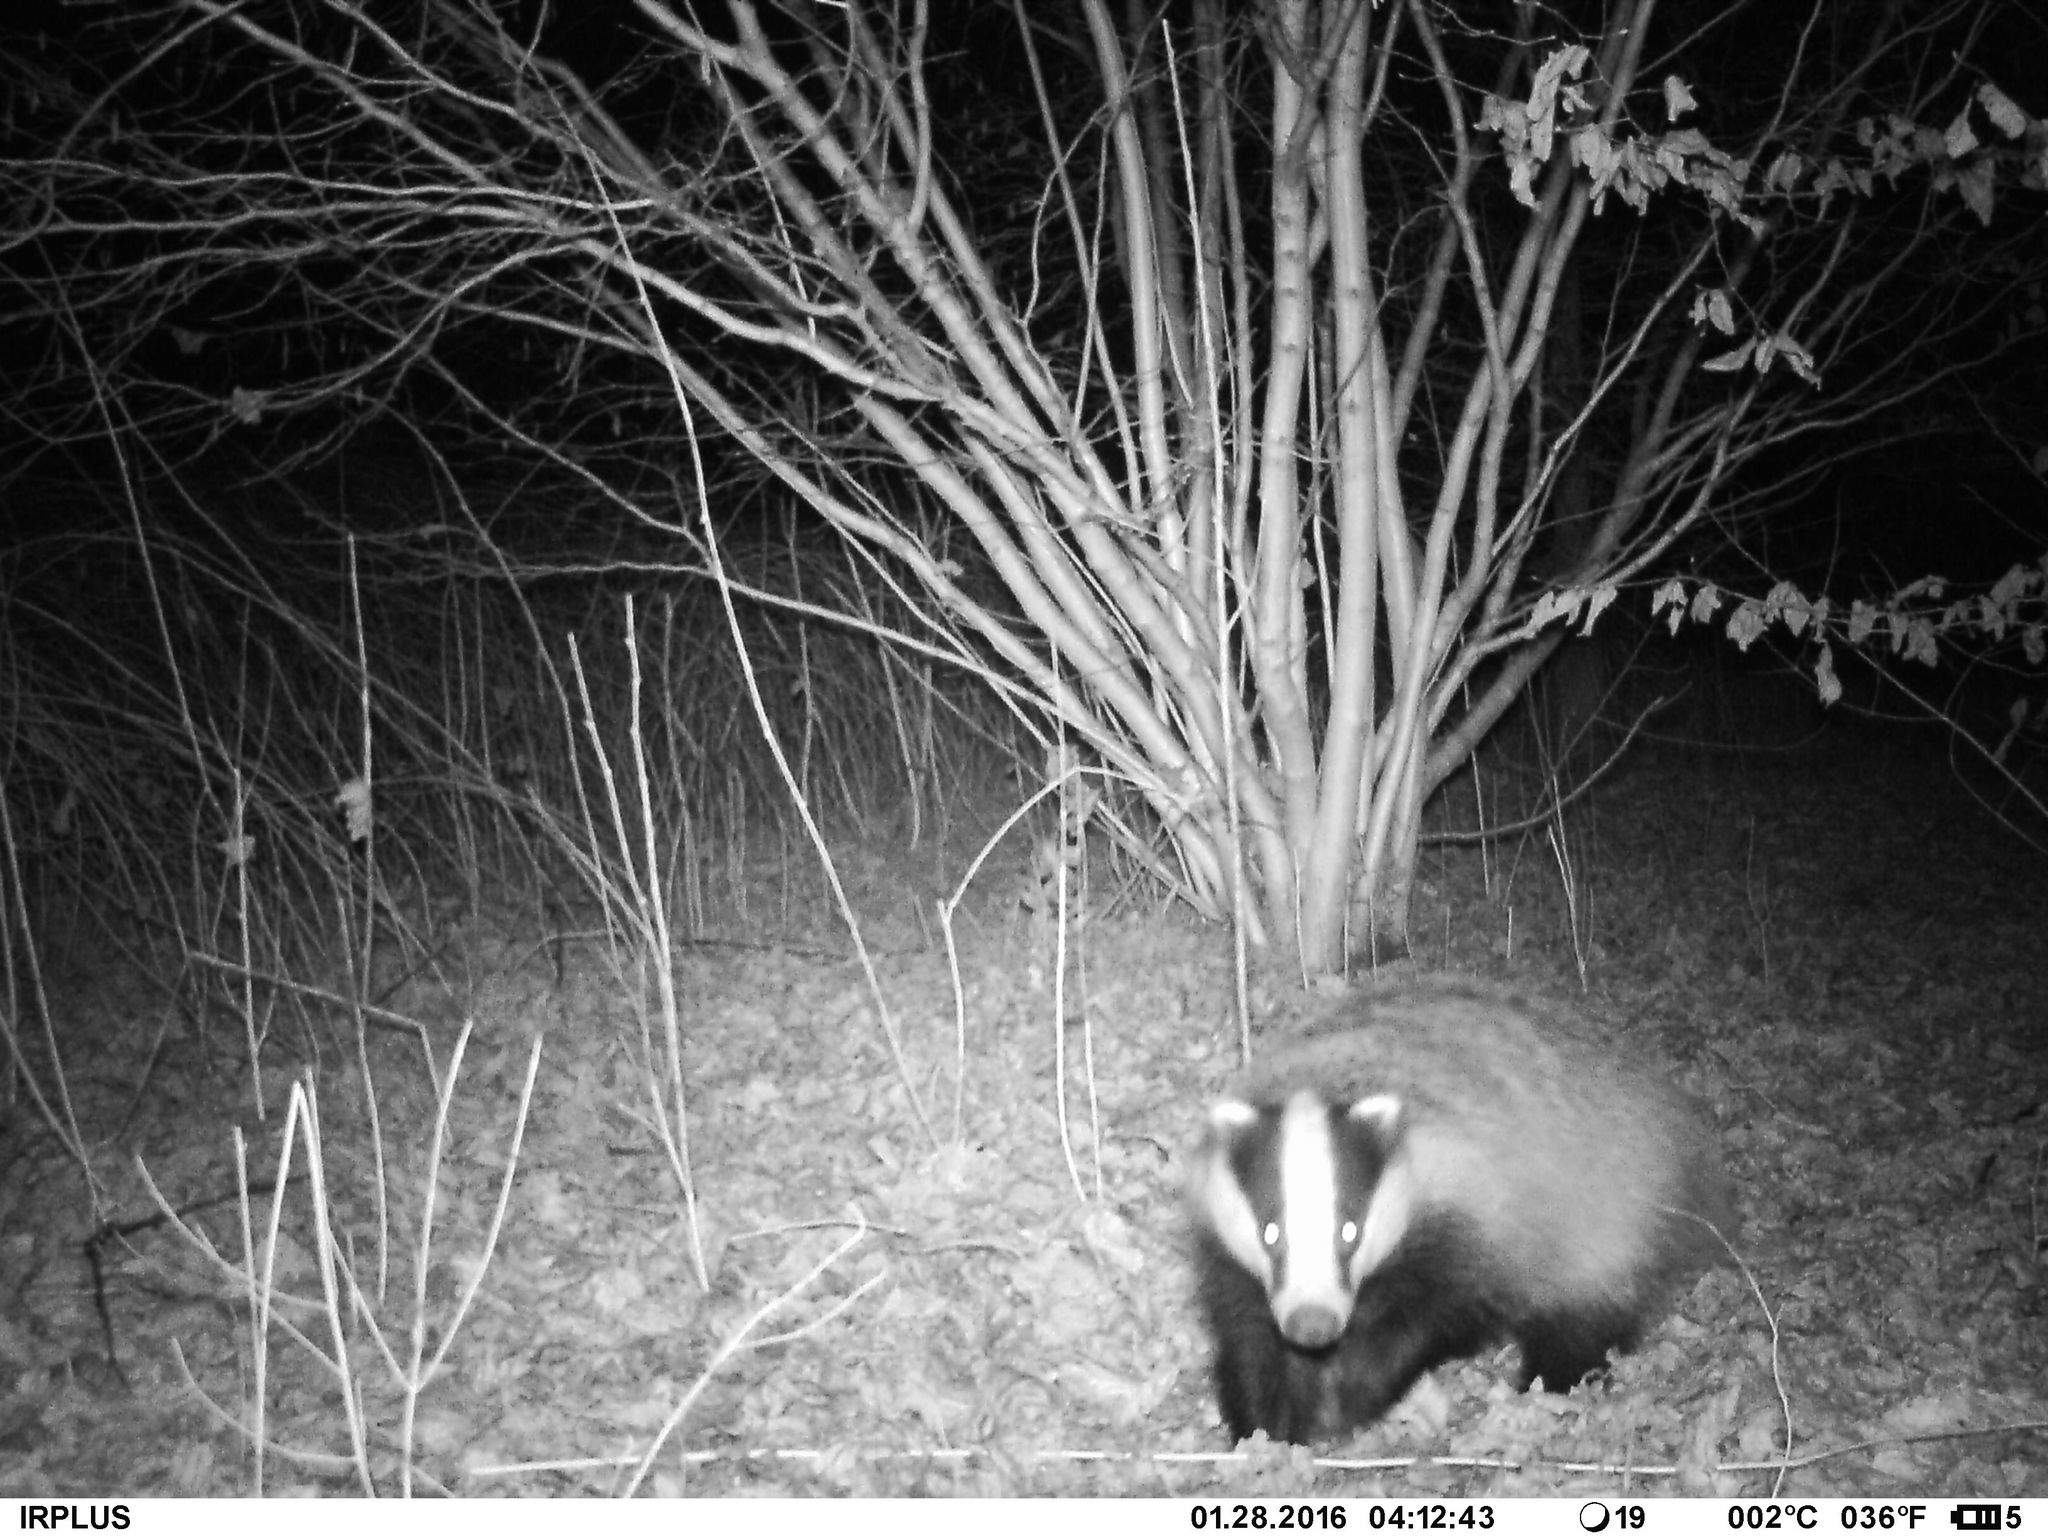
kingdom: Animalia
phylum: Chordata
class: Mammalia
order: Carnivora
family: Mustelidae
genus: Meles
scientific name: Meles meles
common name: Eurasian badger
